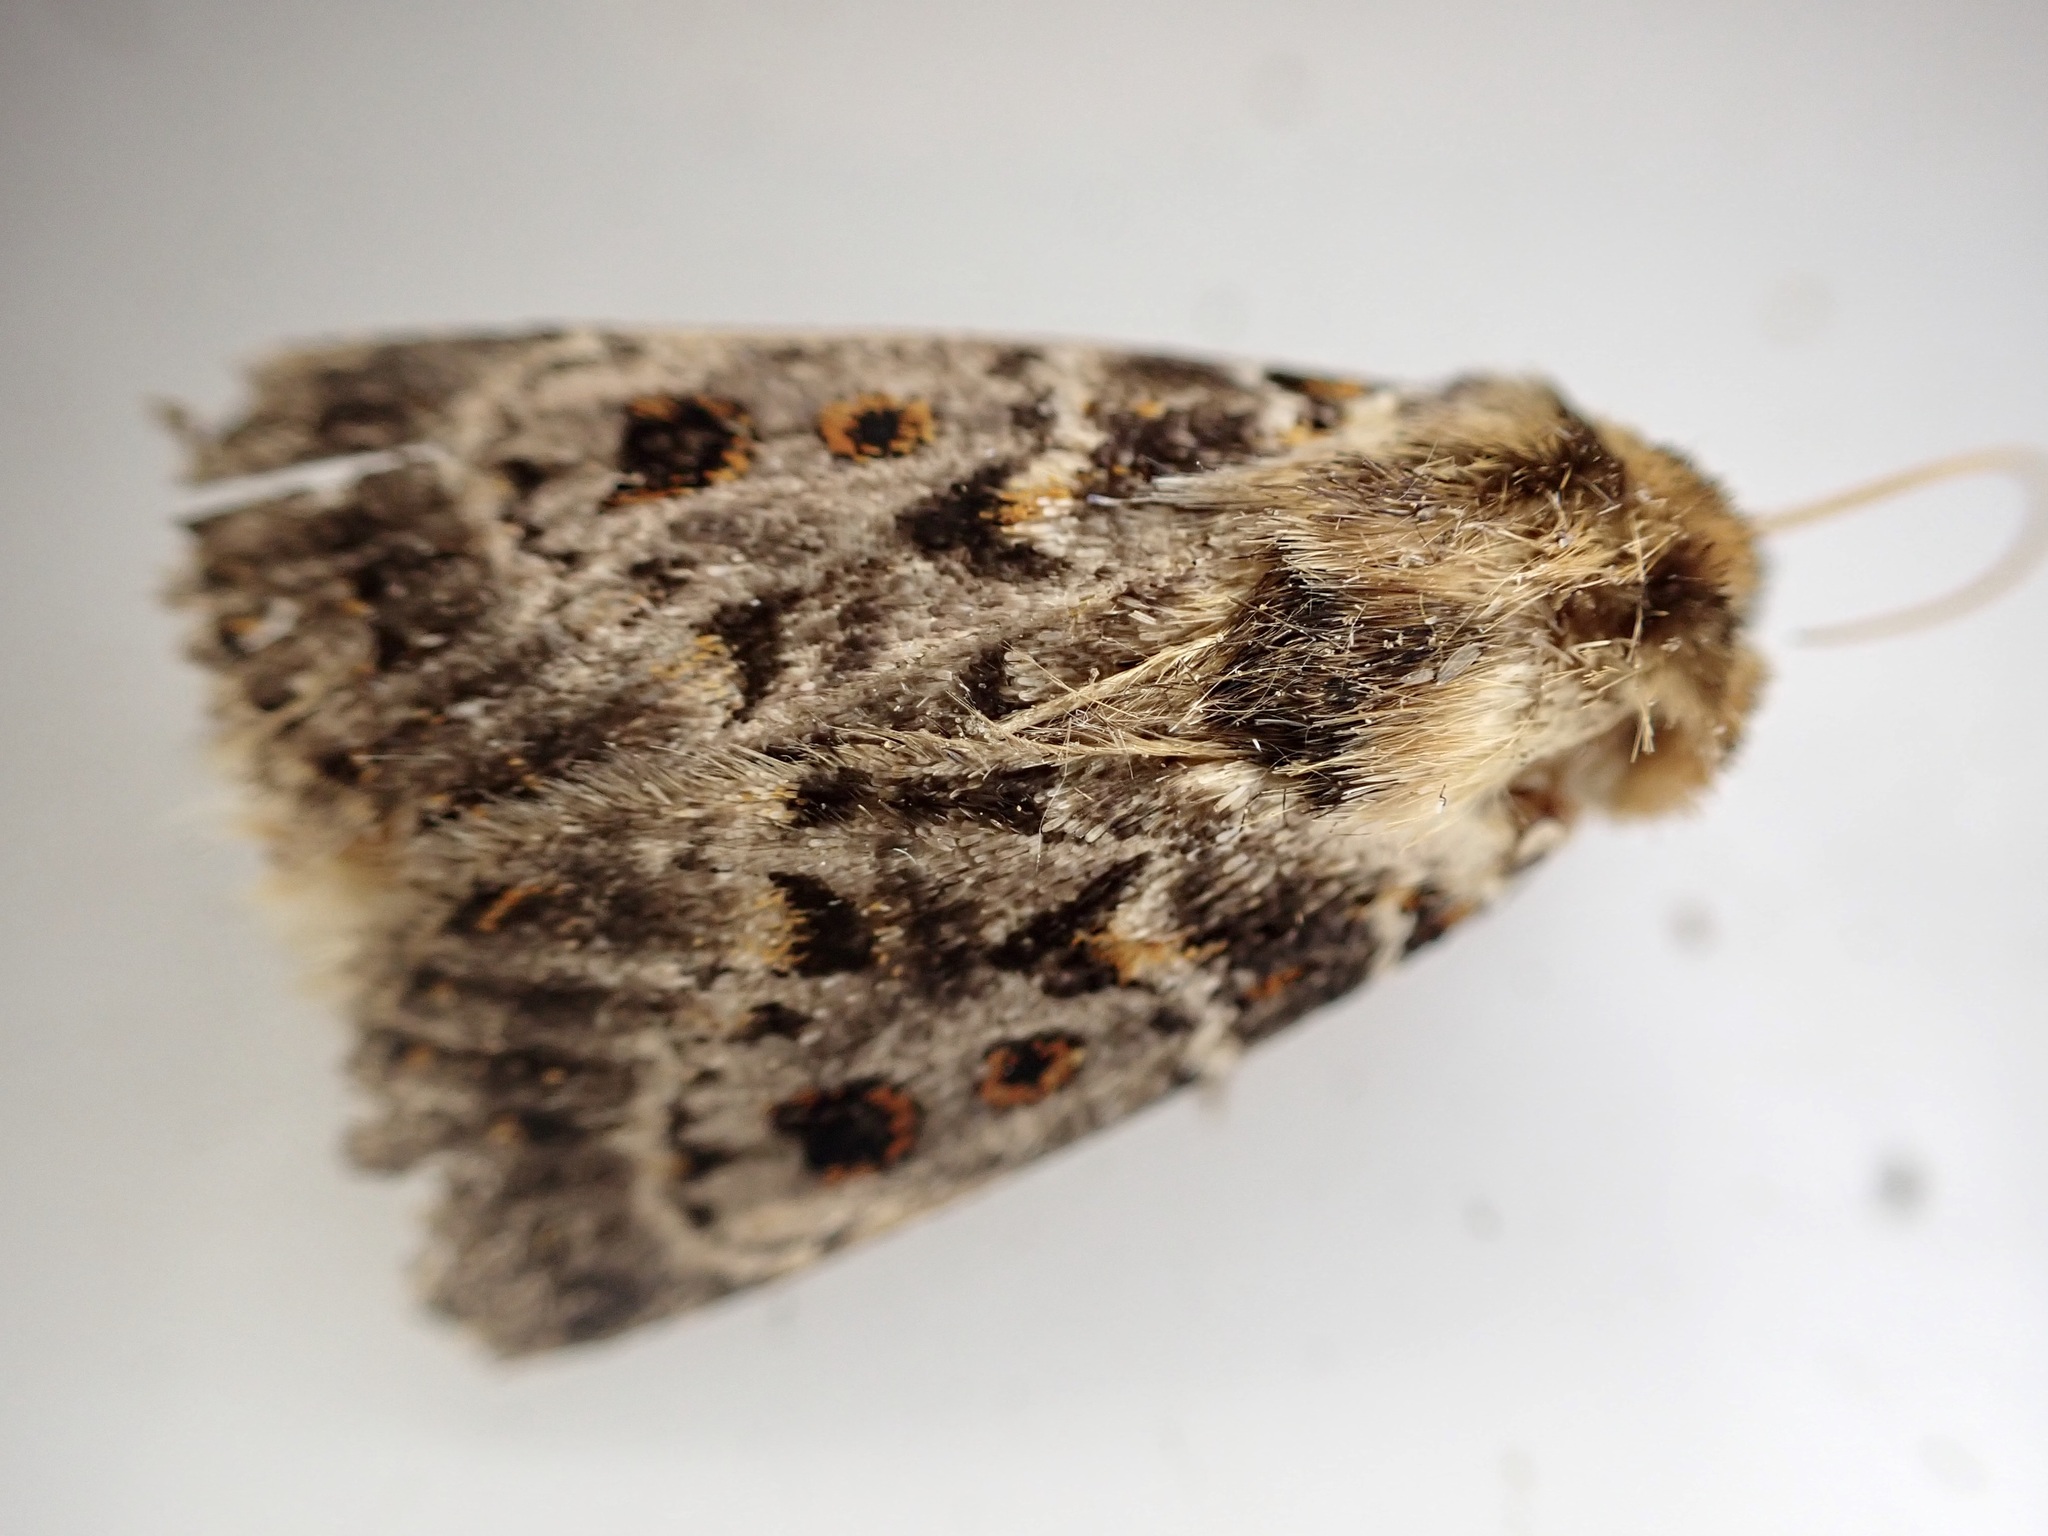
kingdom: Animalia
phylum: Arthropoda
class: Insecta
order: Lepidoptera
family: Noctuidae
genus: Proteuxoa
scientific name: Proteuxoa sanguinipuncta
